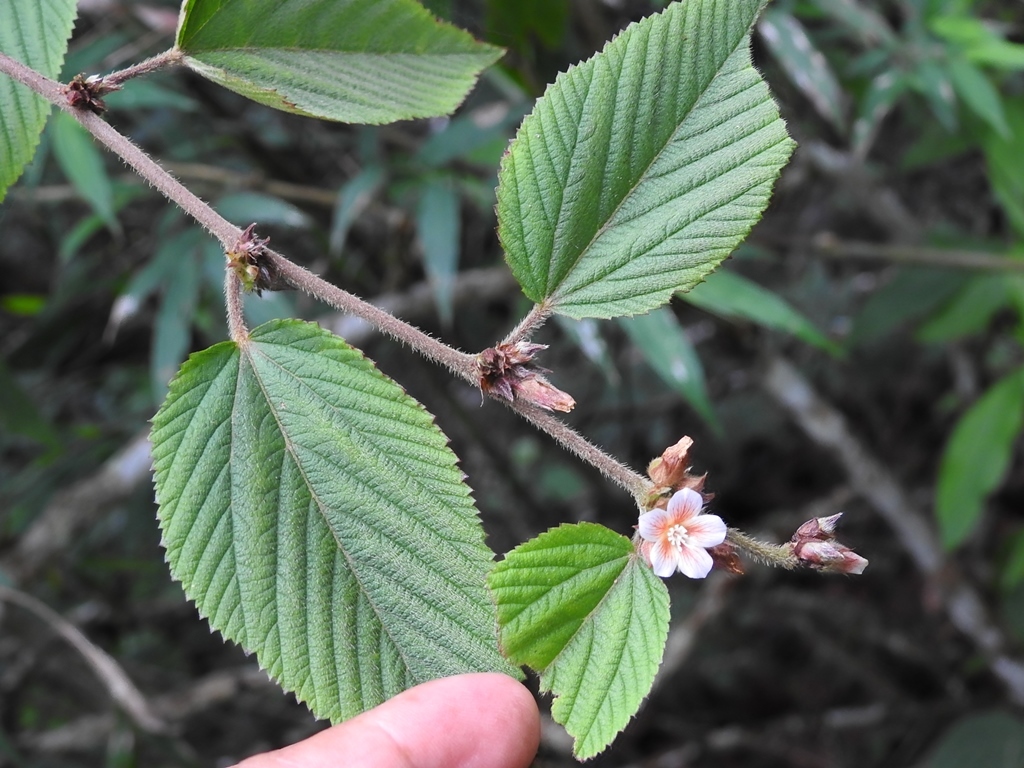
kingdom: Plantae
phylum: Tracheophyta
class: Magnoliopsida
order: Malvales
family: Malvaceae
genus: Melochia
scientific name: Melochia nodiflora
